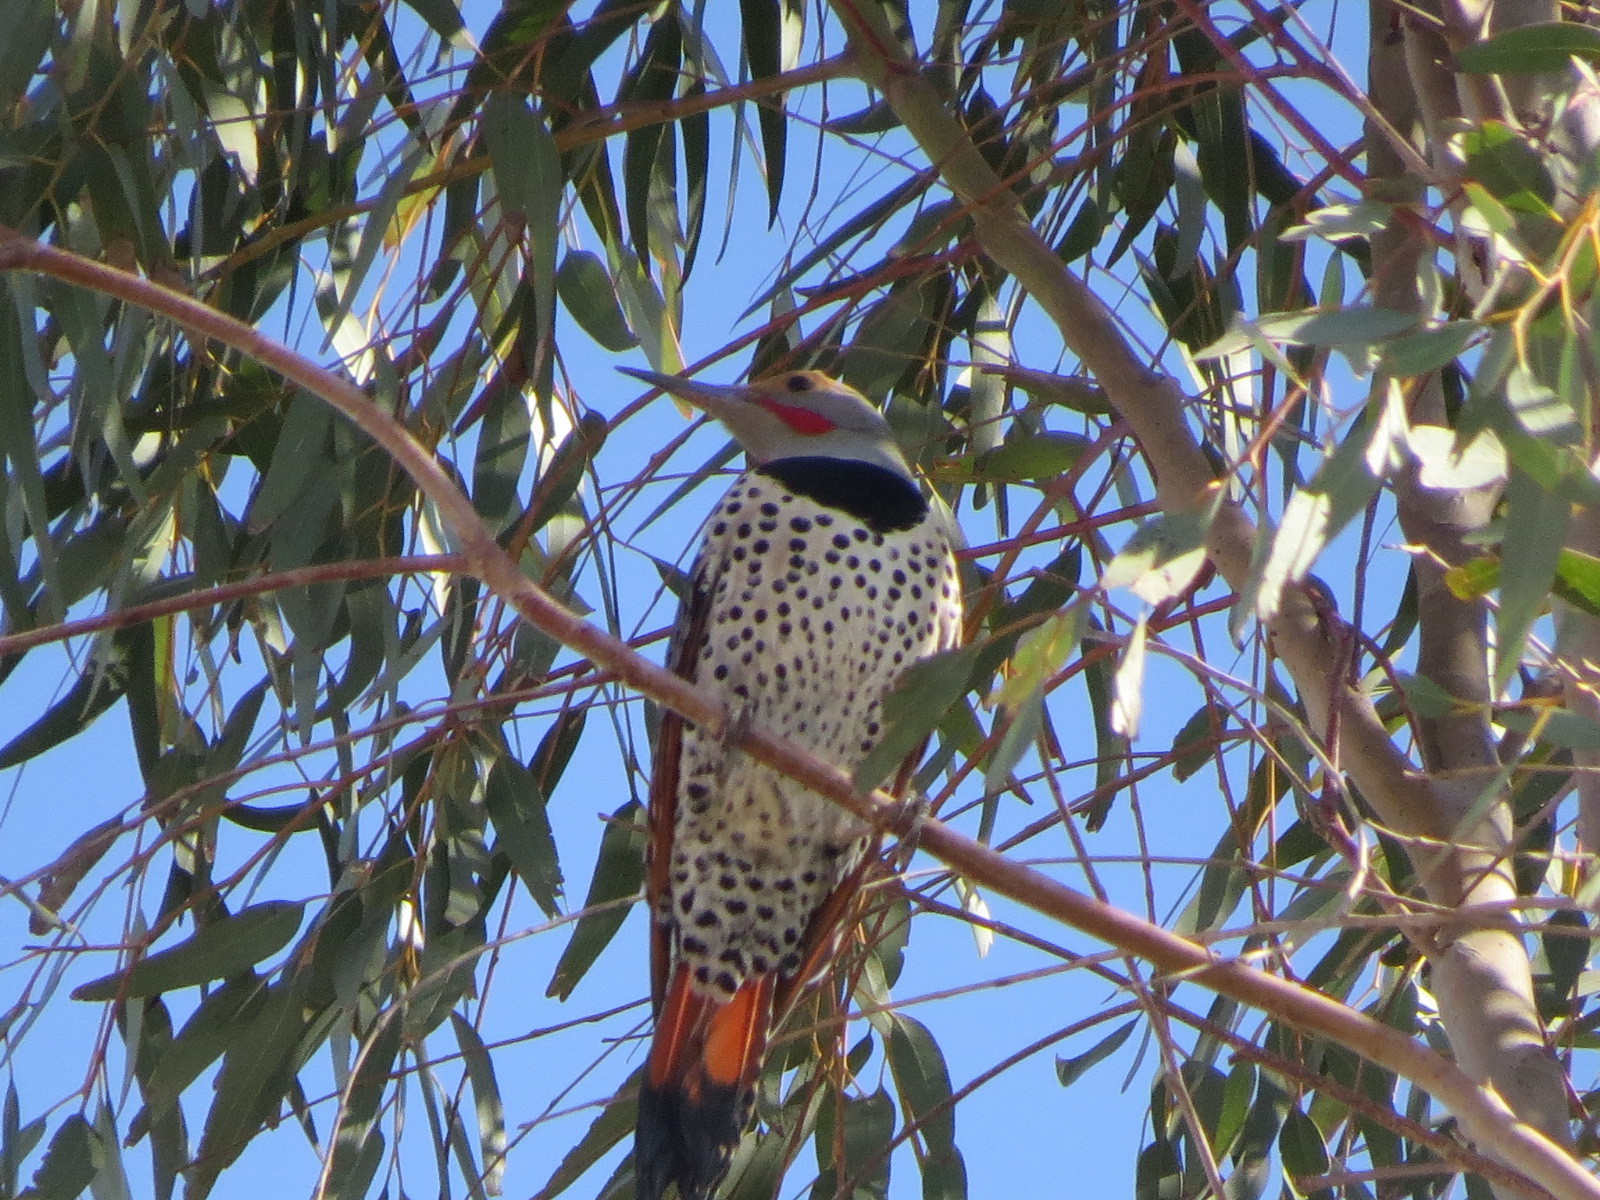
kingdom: Animalia
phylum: Chordata
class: Aves
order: Piciformes
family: Picidae
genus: Colaptes
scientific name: Colaptes auratus
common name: Northern flicker
